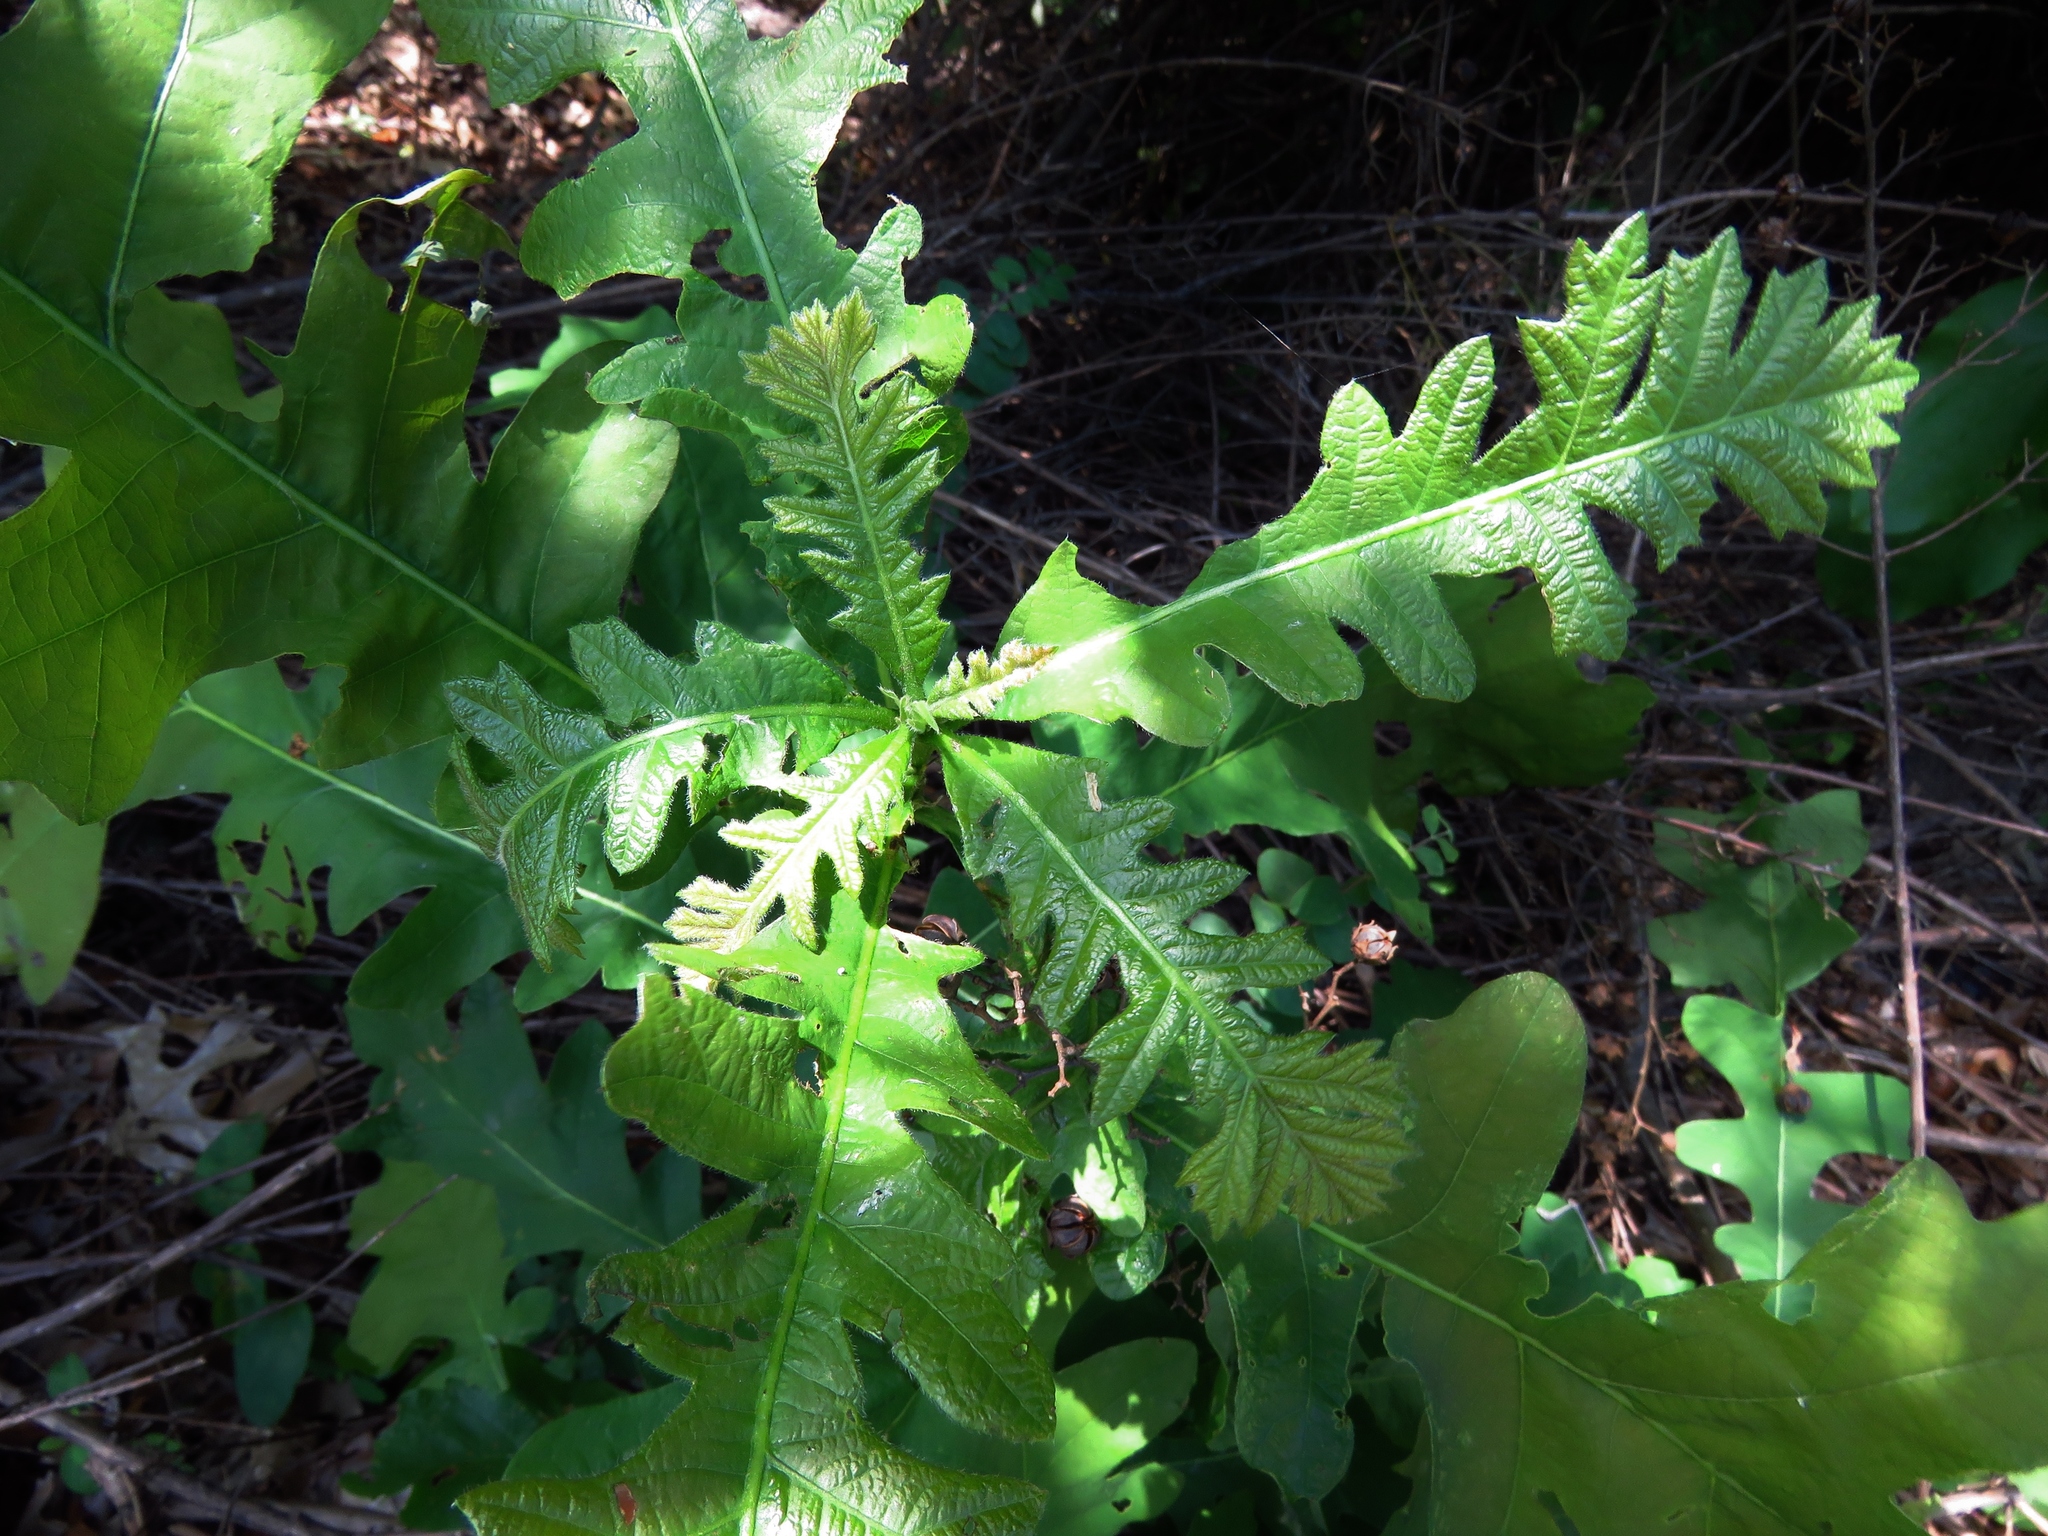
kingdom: Plantae
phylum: Tracheophyta
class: Magnoliopsida
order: Fagales
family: Fagaceae
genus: Quercus
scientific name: Quercus macrocarpa
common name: Bur oak
